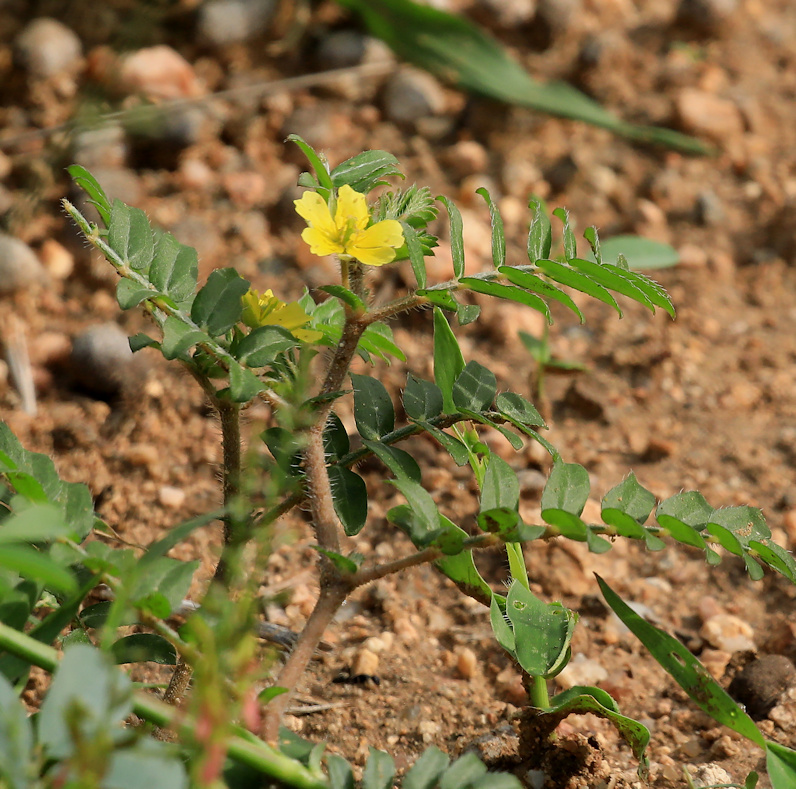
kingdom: Plantae
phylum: Tracheophyta
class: Magnoliopsida
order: Zygophyllales
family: Zygophyllaceae
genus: Tribulus
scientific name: Tribulus terrestris
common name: Puncturevine
